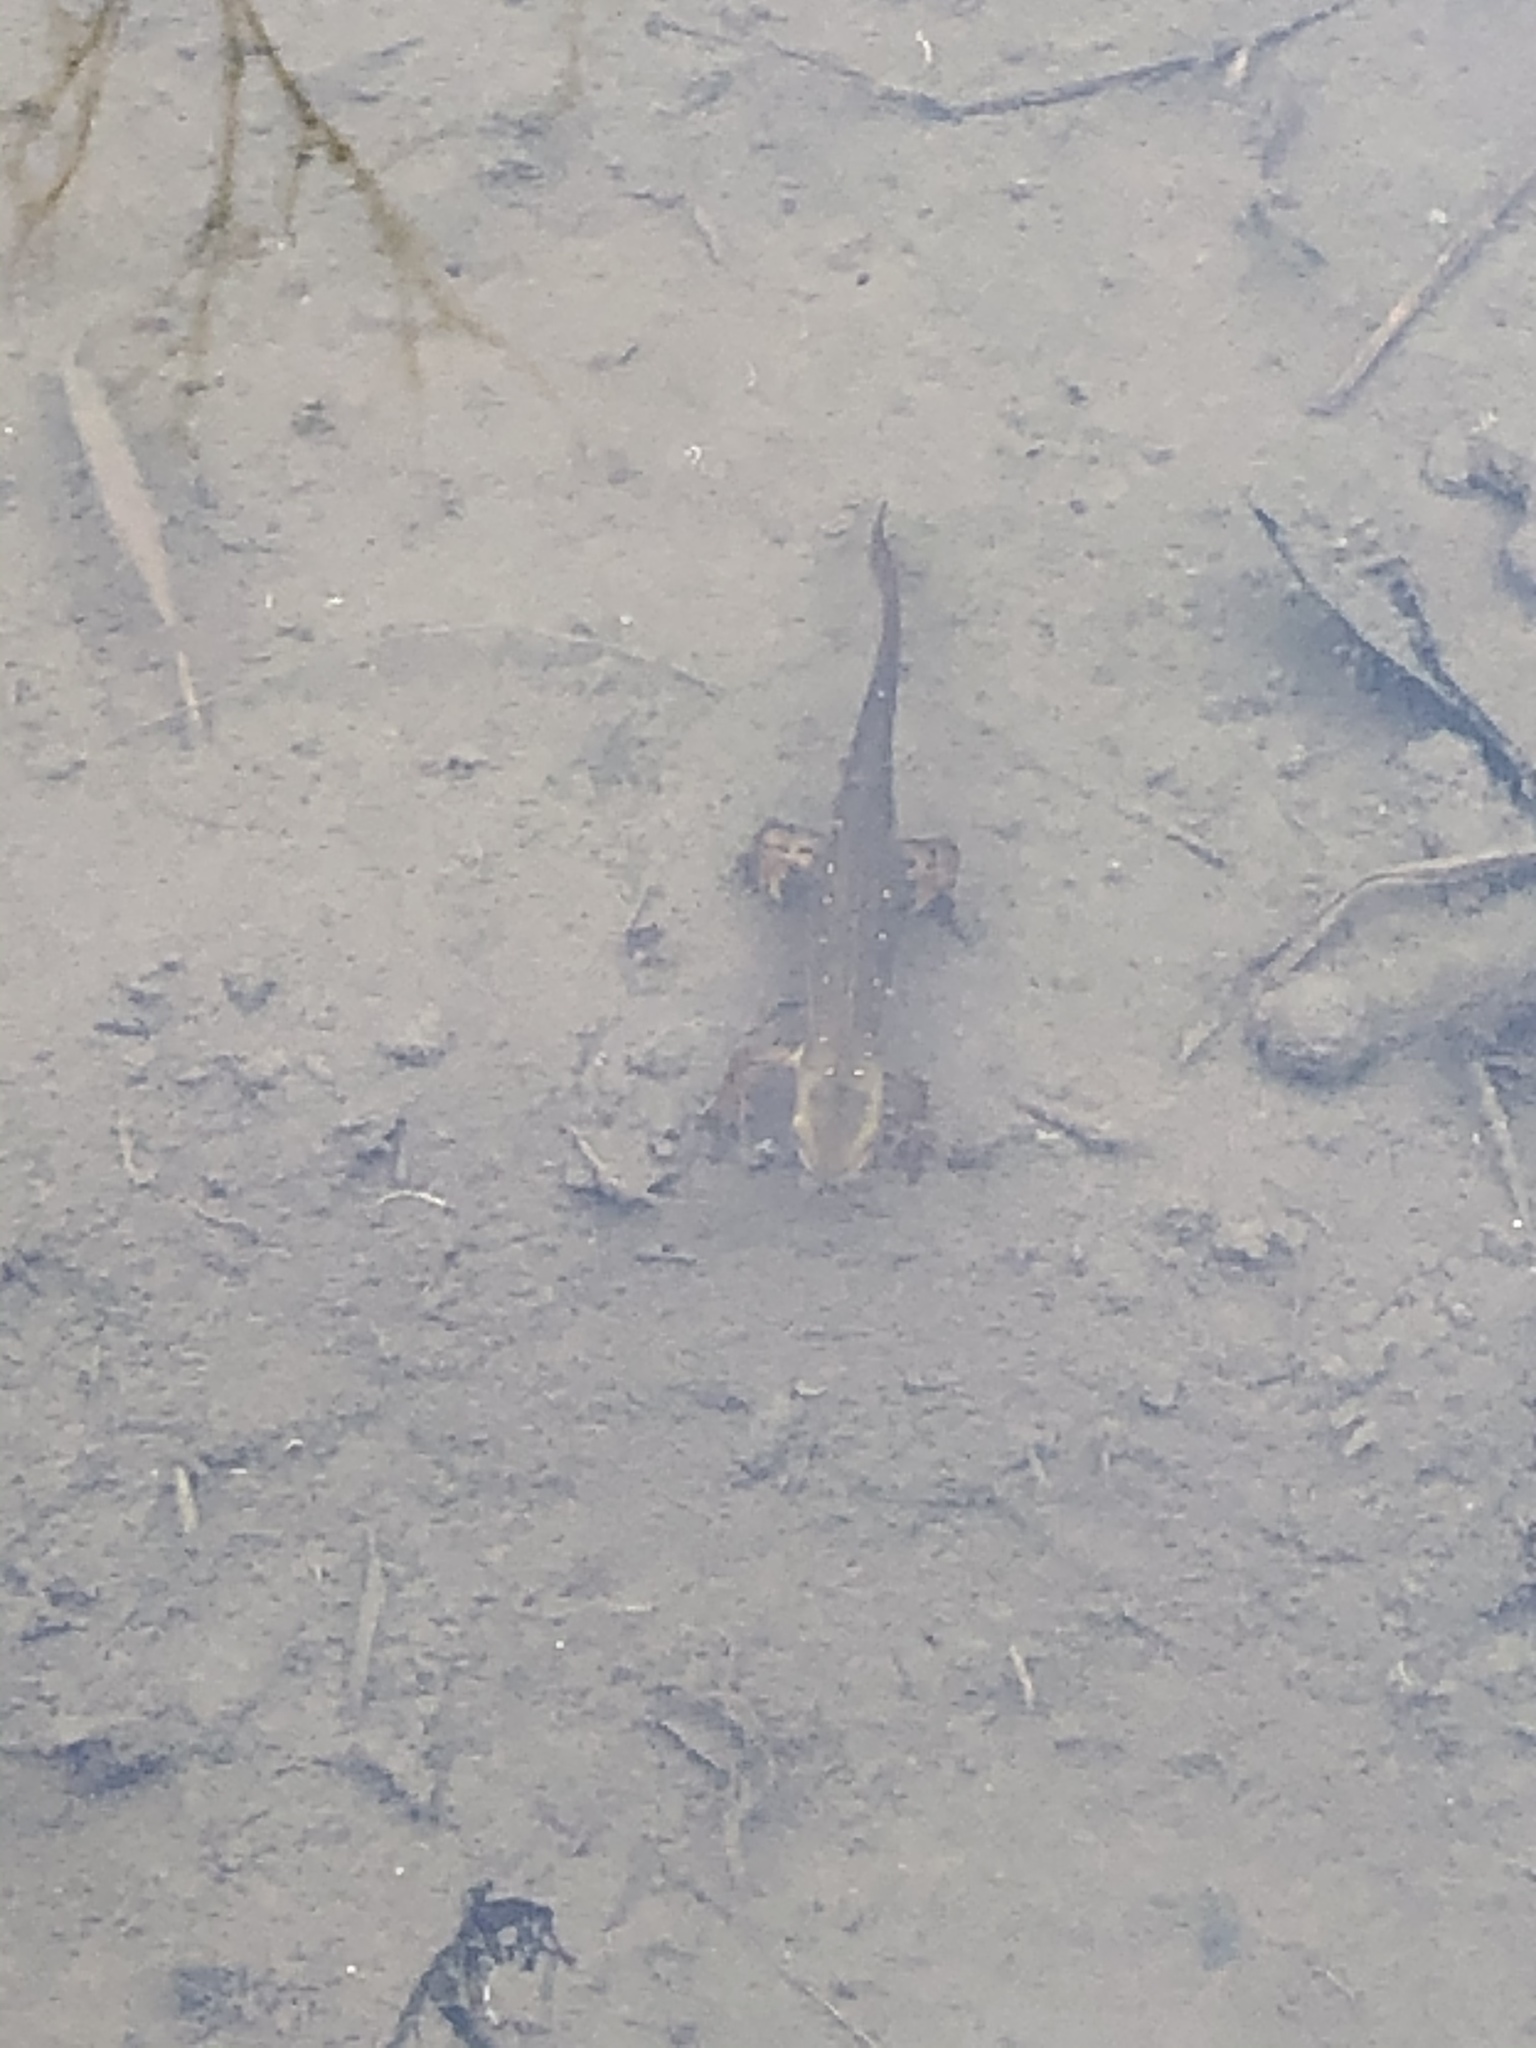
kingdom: Animalia
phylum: Chordata
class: Amphibia
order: Caudata
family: Salamandridae
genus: Notophthalmus
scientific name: Notophthalmus viridescens
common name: Eastern newt
